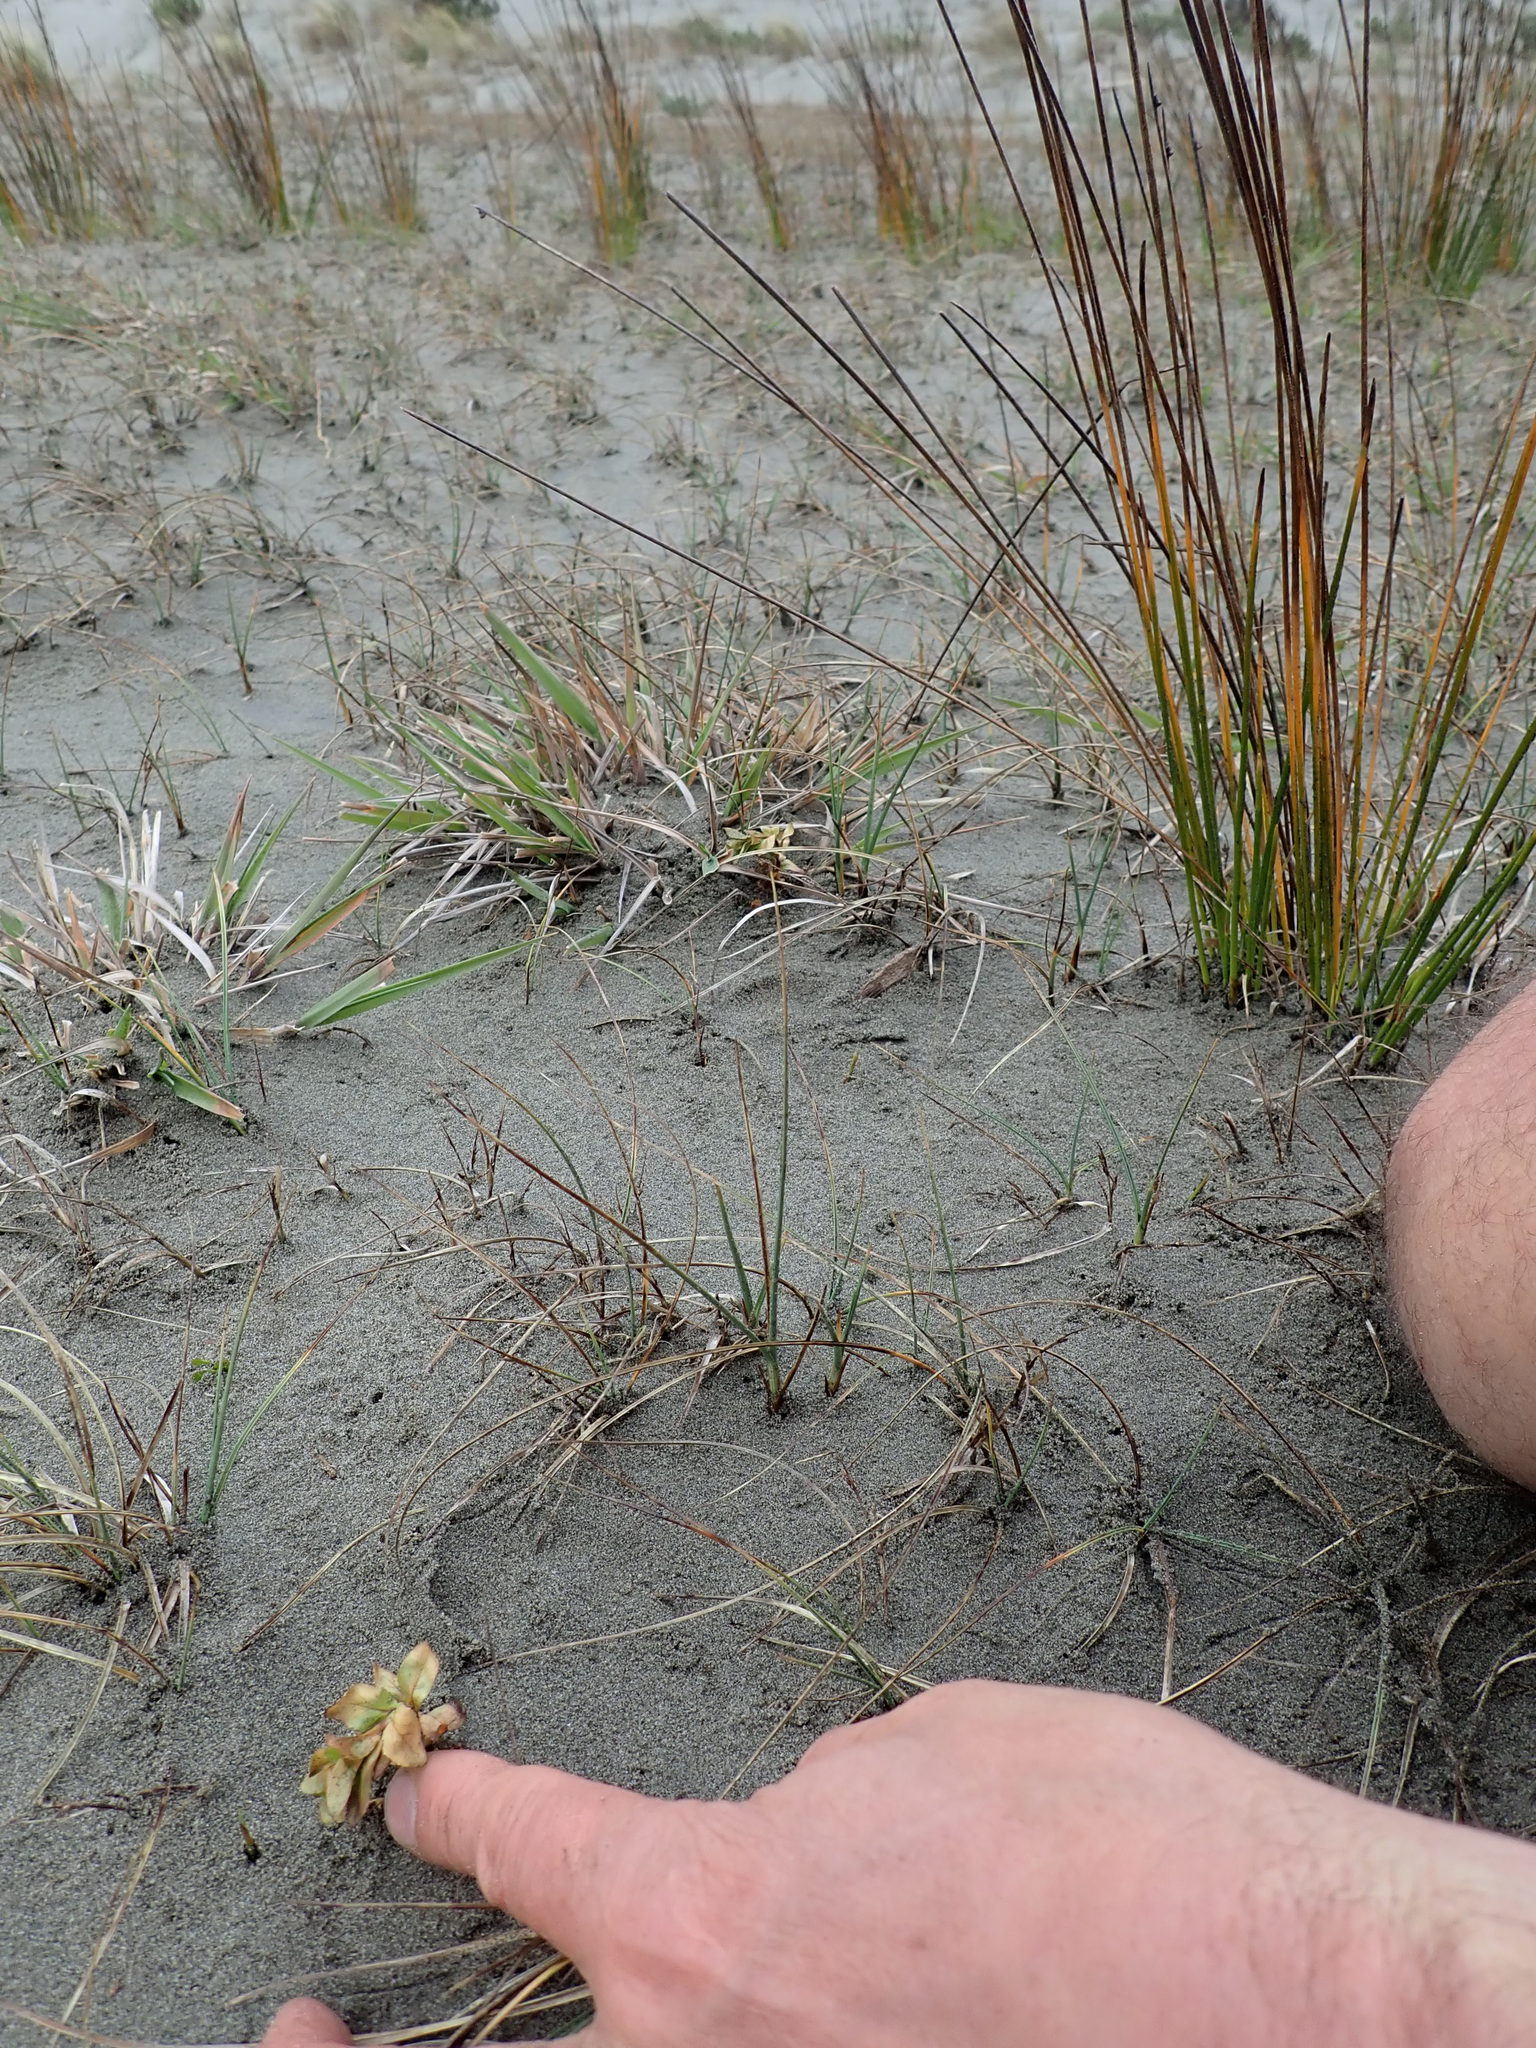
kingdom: Plantae
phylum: Tracheophyta
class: Magnoliopsida
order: Myrtales
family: Onagraceae
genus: Epilobium
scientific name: Epilobium billardiereanum
